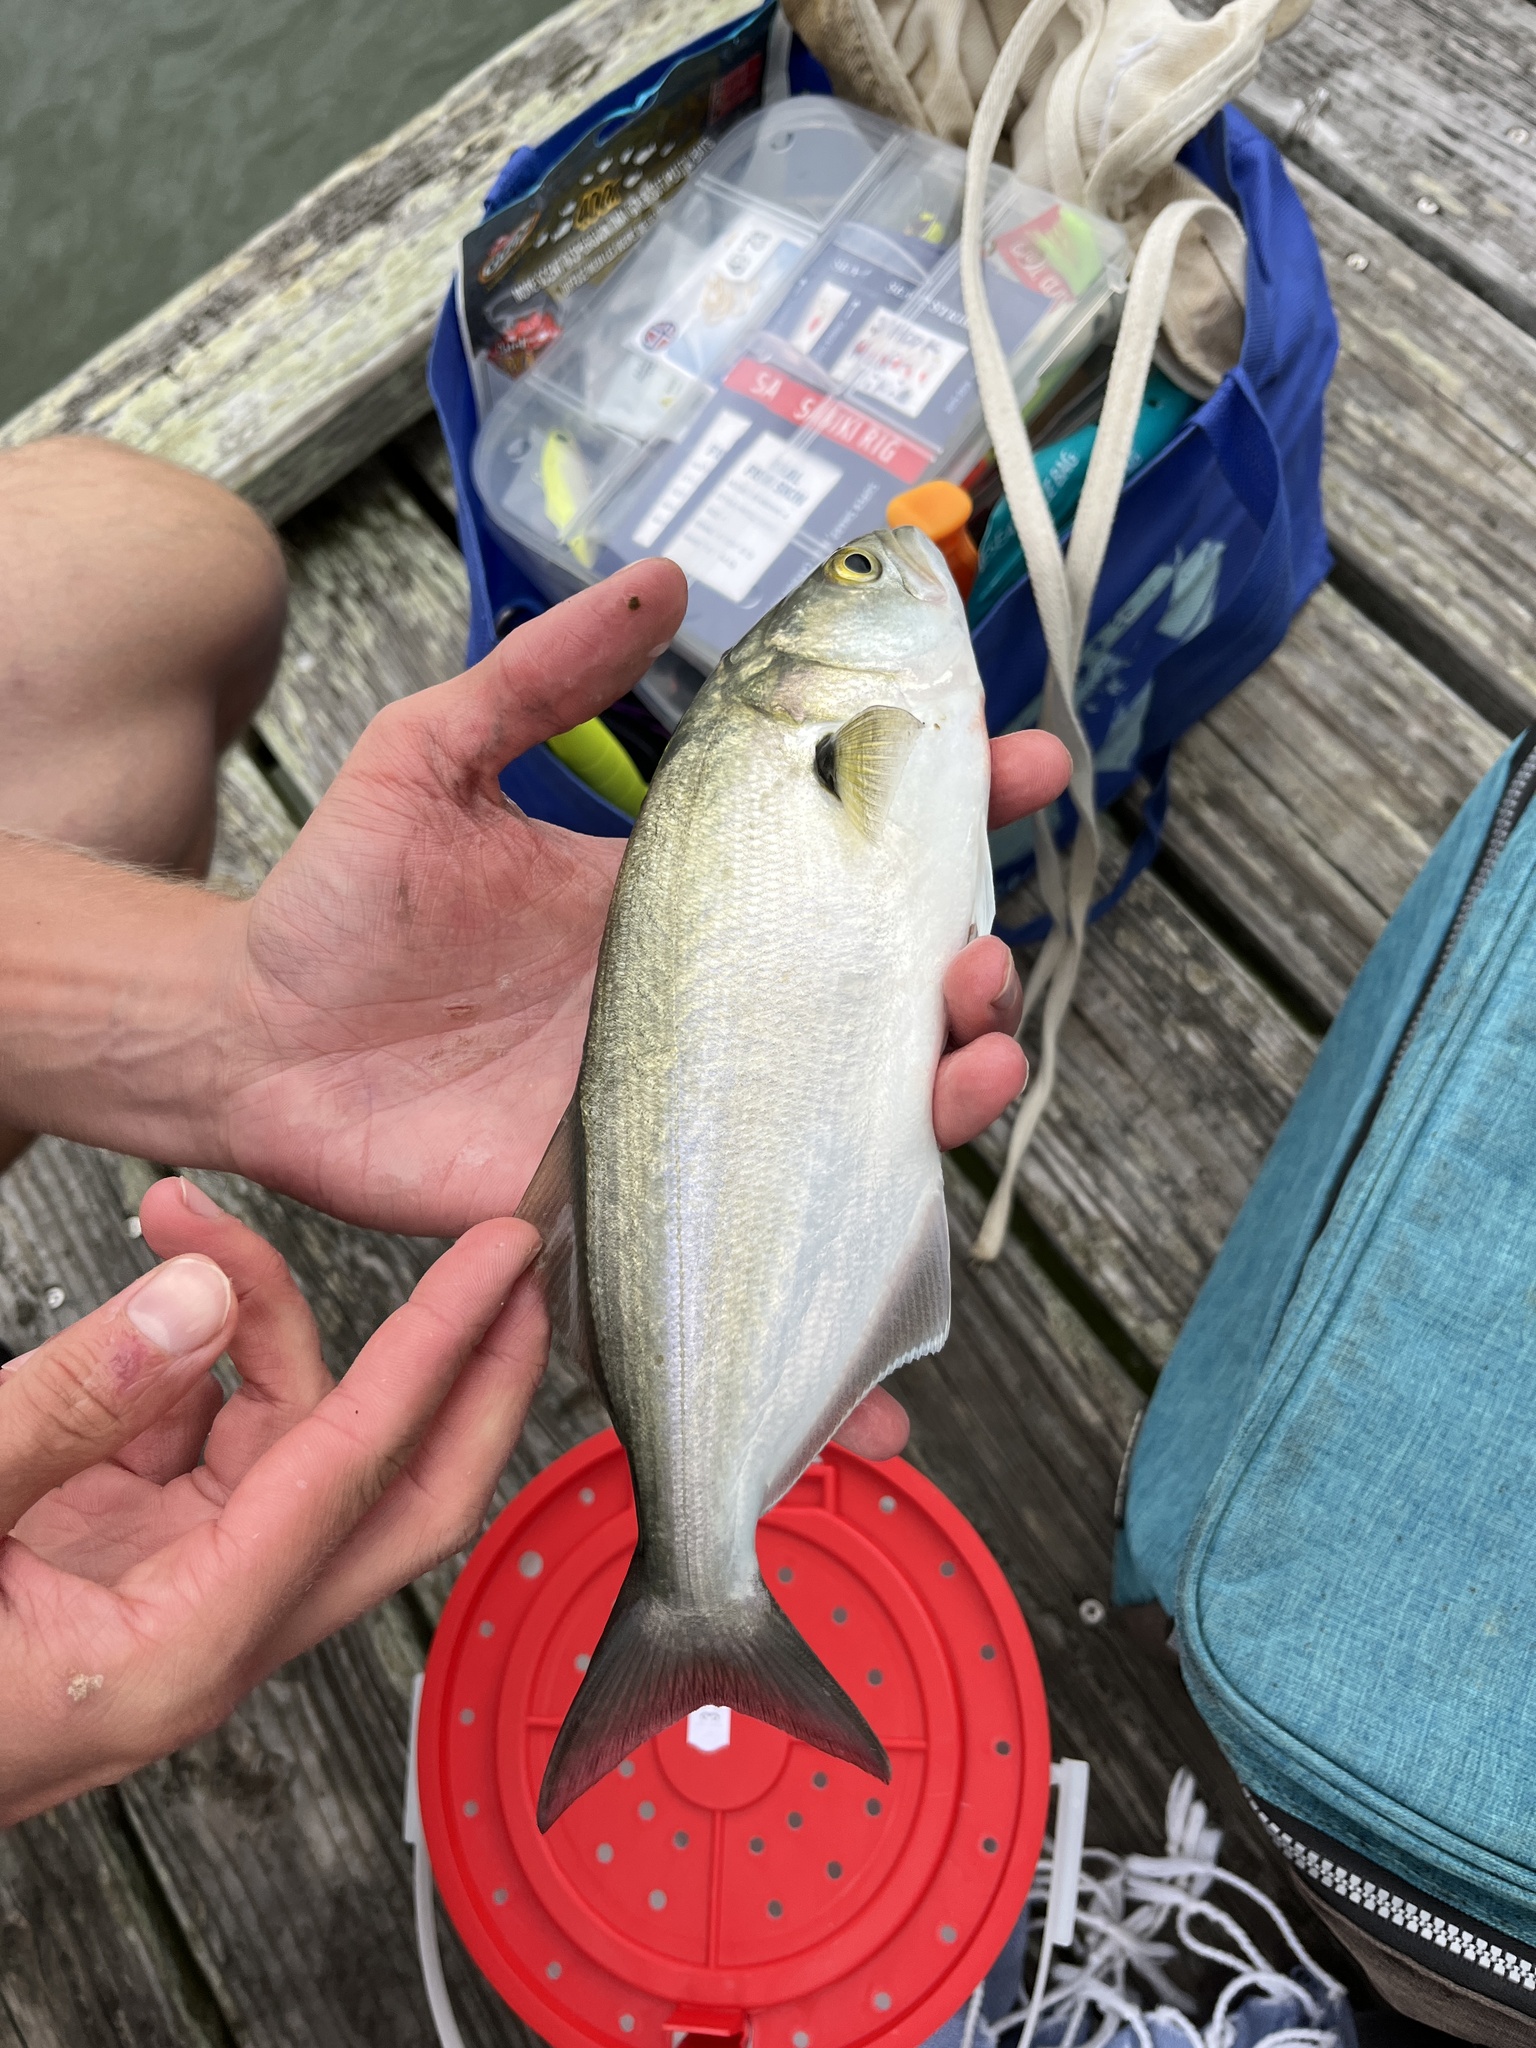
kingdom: Animalia
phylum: Chordata
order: Perciformes
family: Pomatomidae
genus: Pomatomus
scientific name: Pomatomus saltatrix
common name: Bluefish
